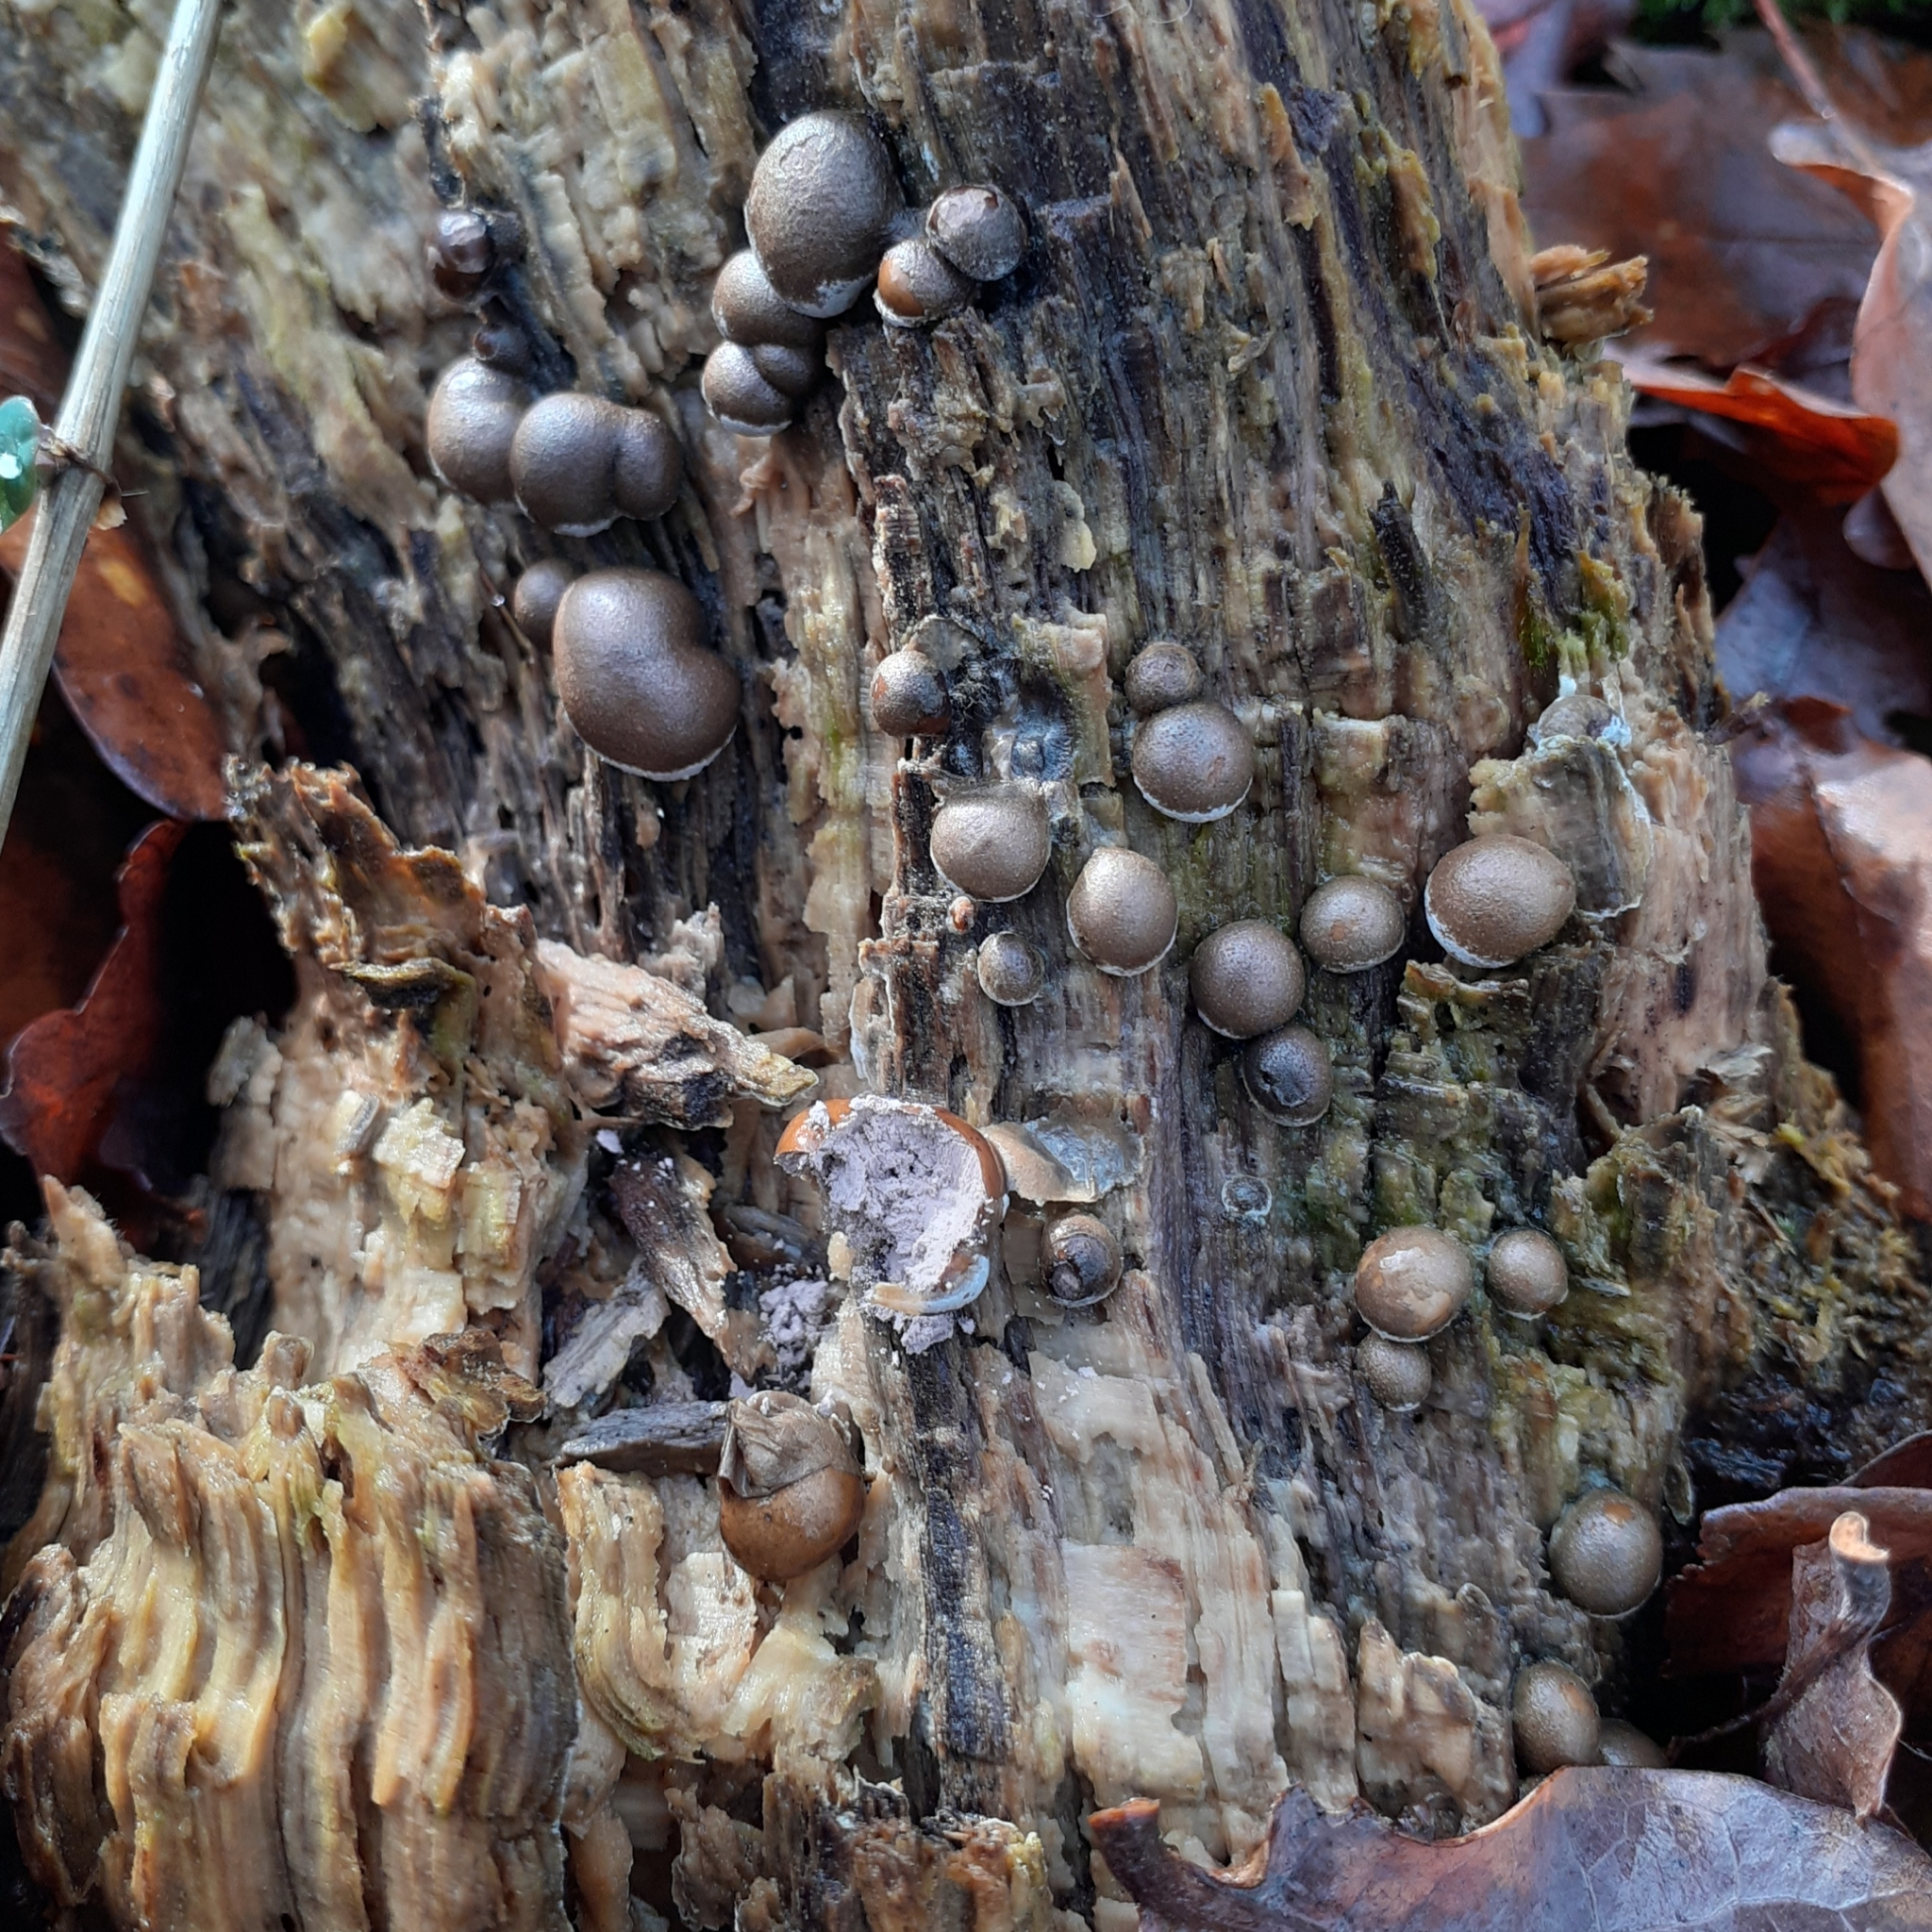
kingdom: Protozoa
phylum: Mycetozoa
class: Myxomycetes
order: Cribrariales
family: Tubiferaceae
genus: Lycogala
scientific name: Lycogala epidendrum
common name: Wolf's milk
